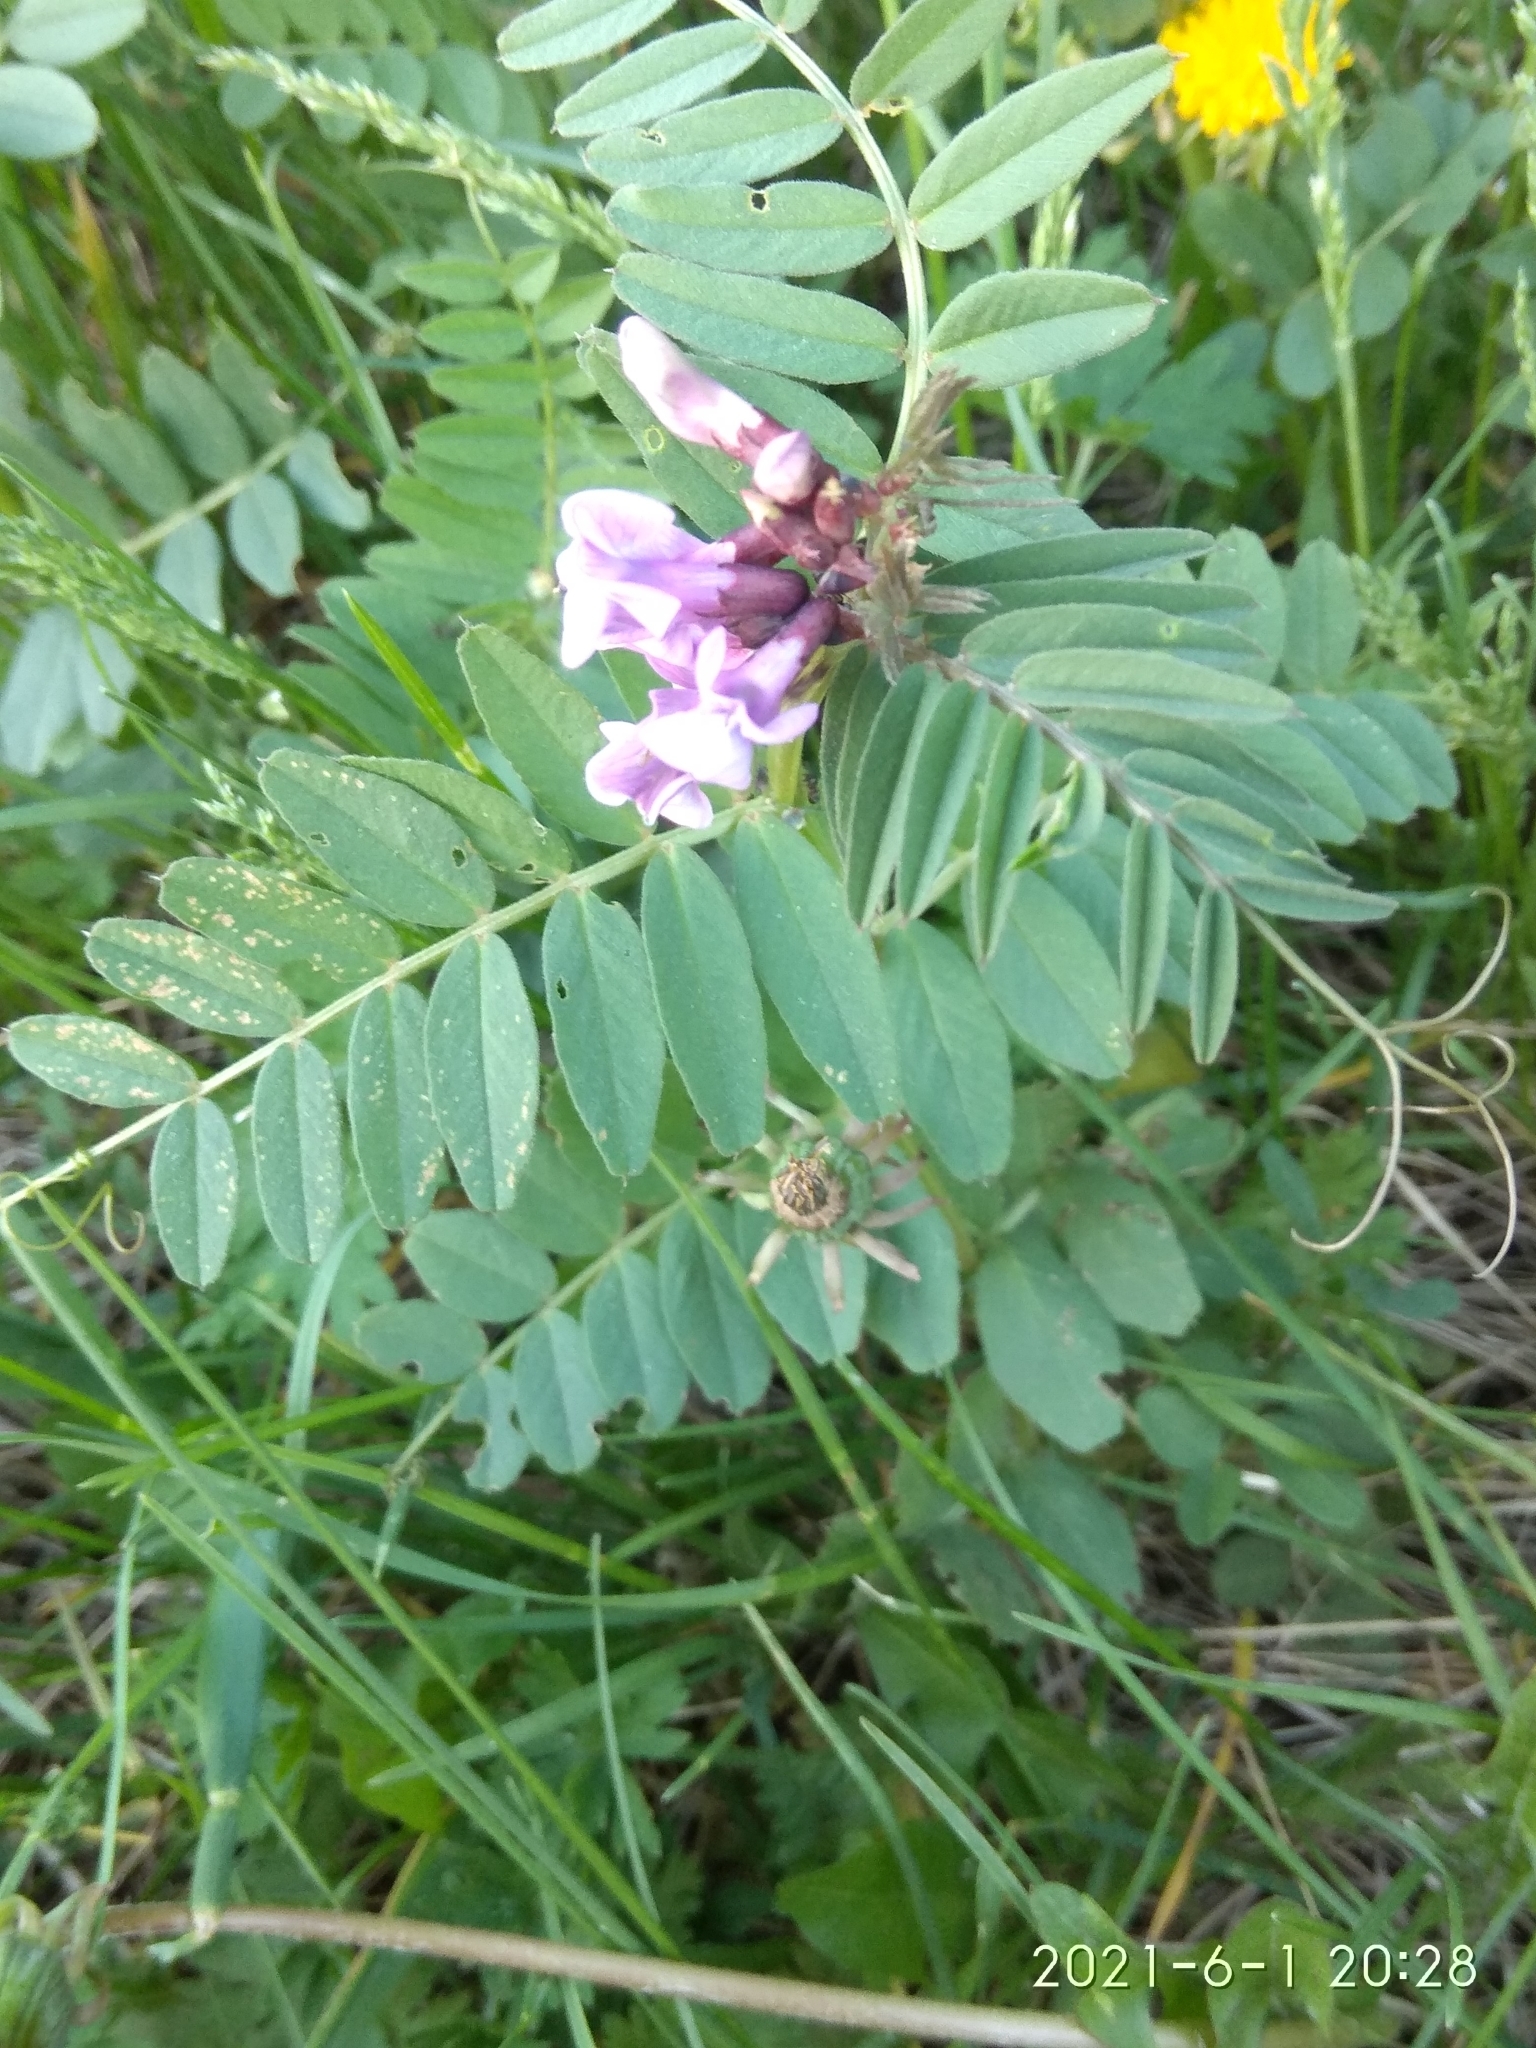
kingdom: Plantae
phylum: Tracheophyta
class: Magnoliopsida
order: Fabales
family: Fabaceae
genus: Vicia
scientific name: Vicia sepium
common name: Bush vetch
